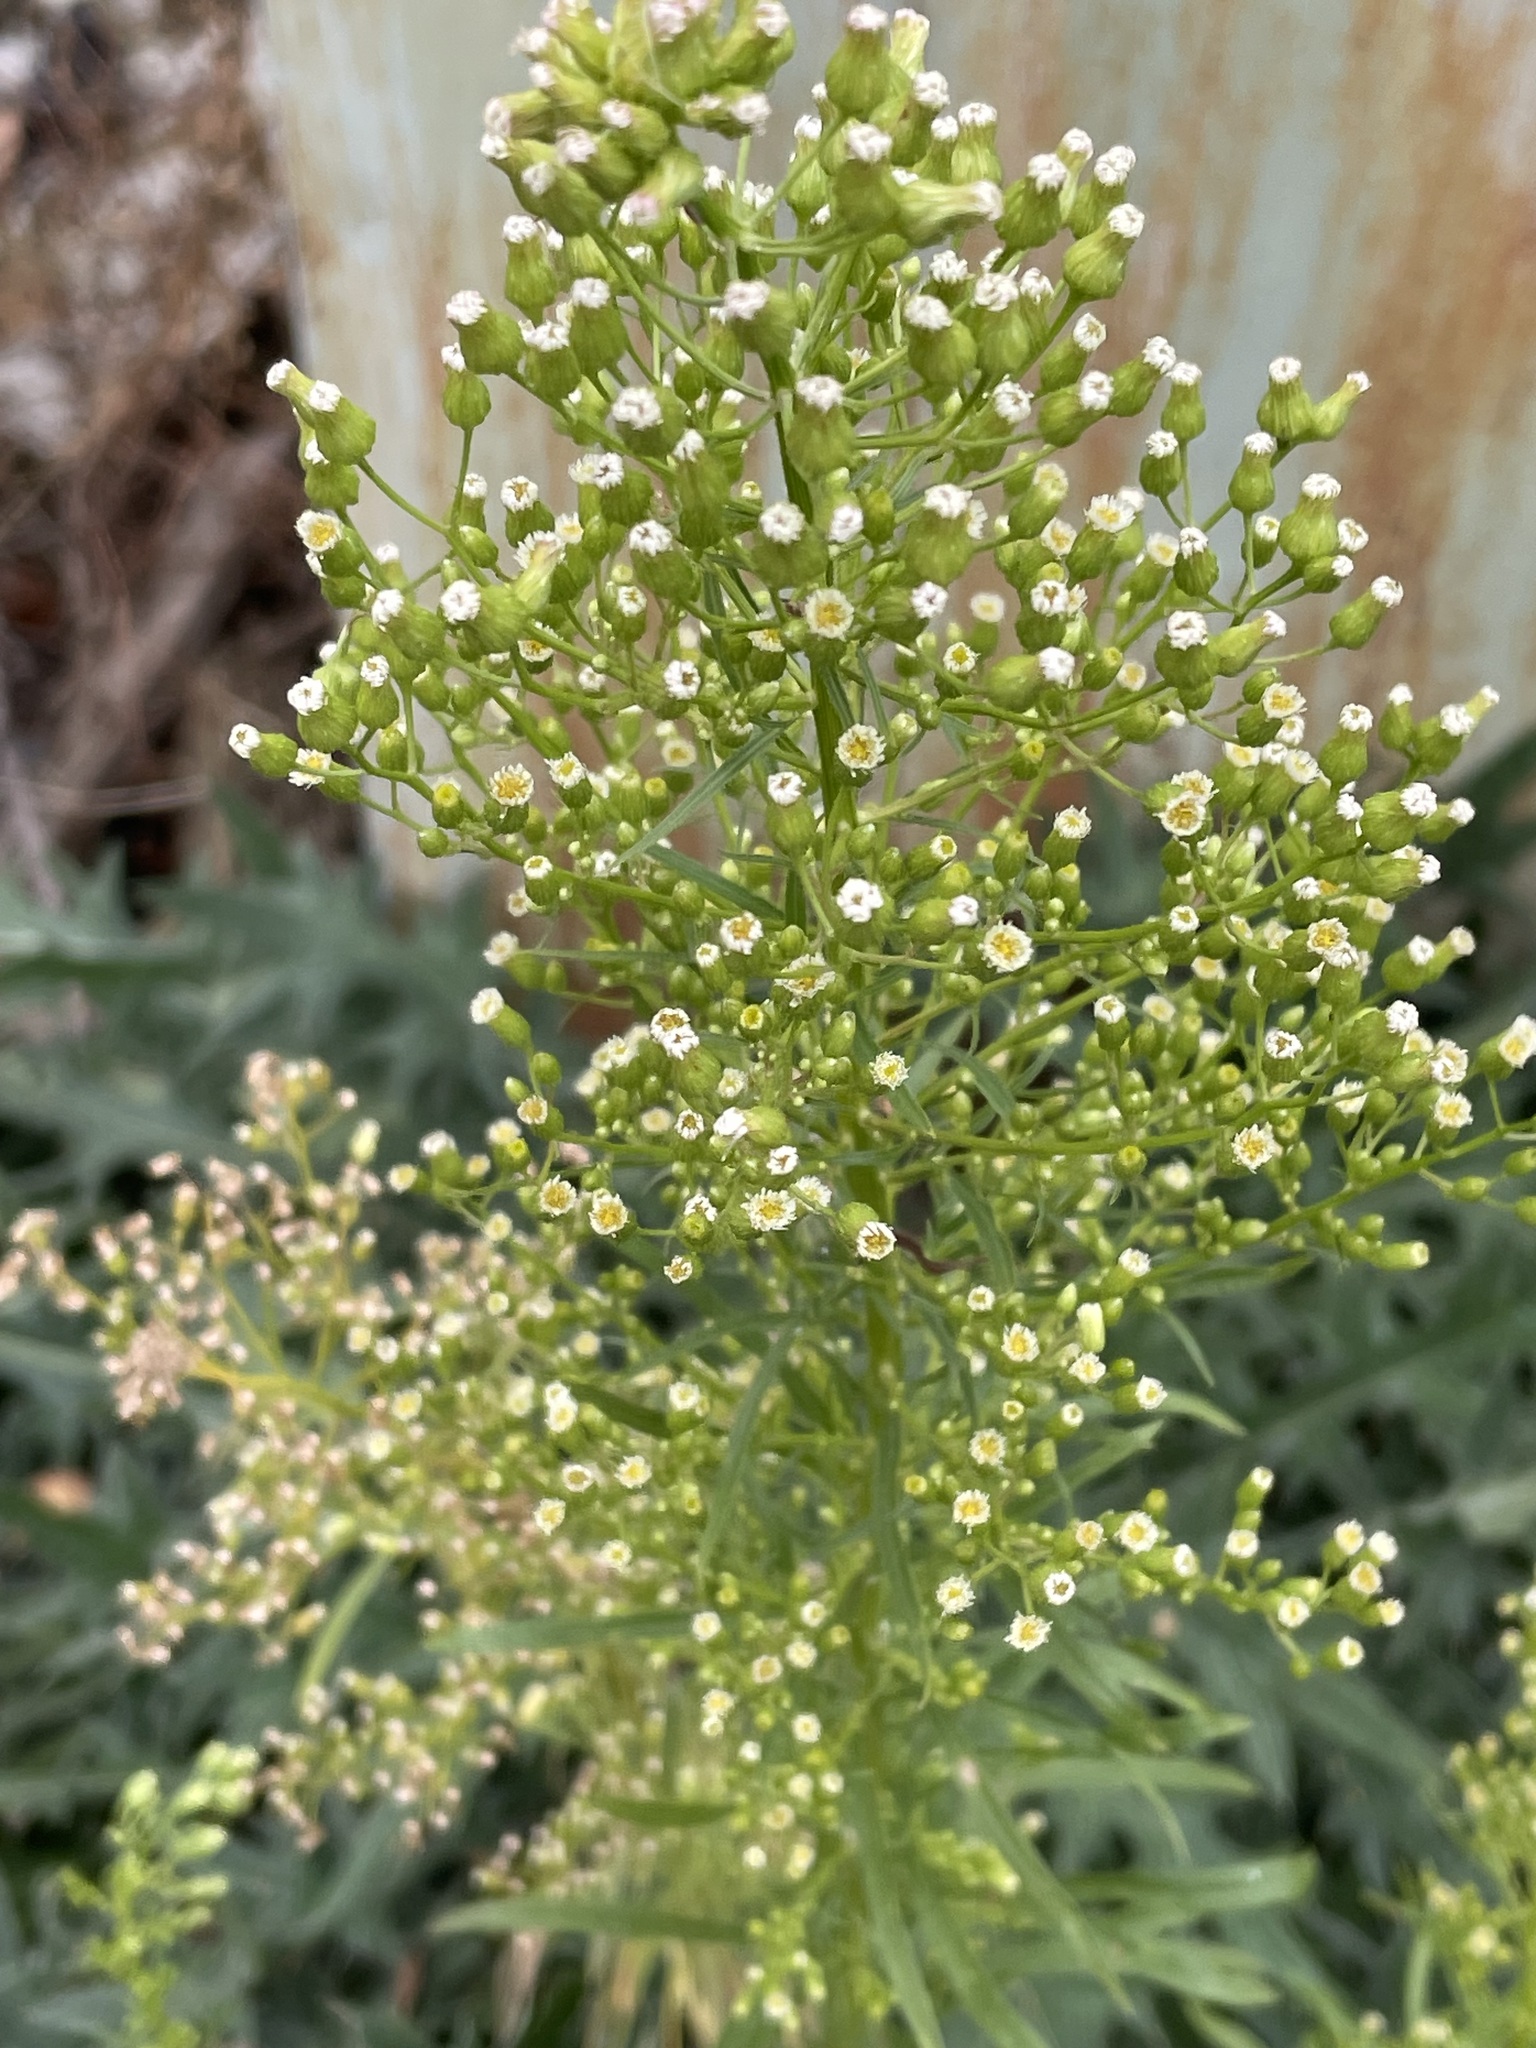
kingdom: Plantae
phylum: Tracheophyta
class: Magnoliopsida
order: Asterales
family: Asteraceae
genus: Erigeron
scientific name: Erigeron canadensis
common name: Canadian fleabane
